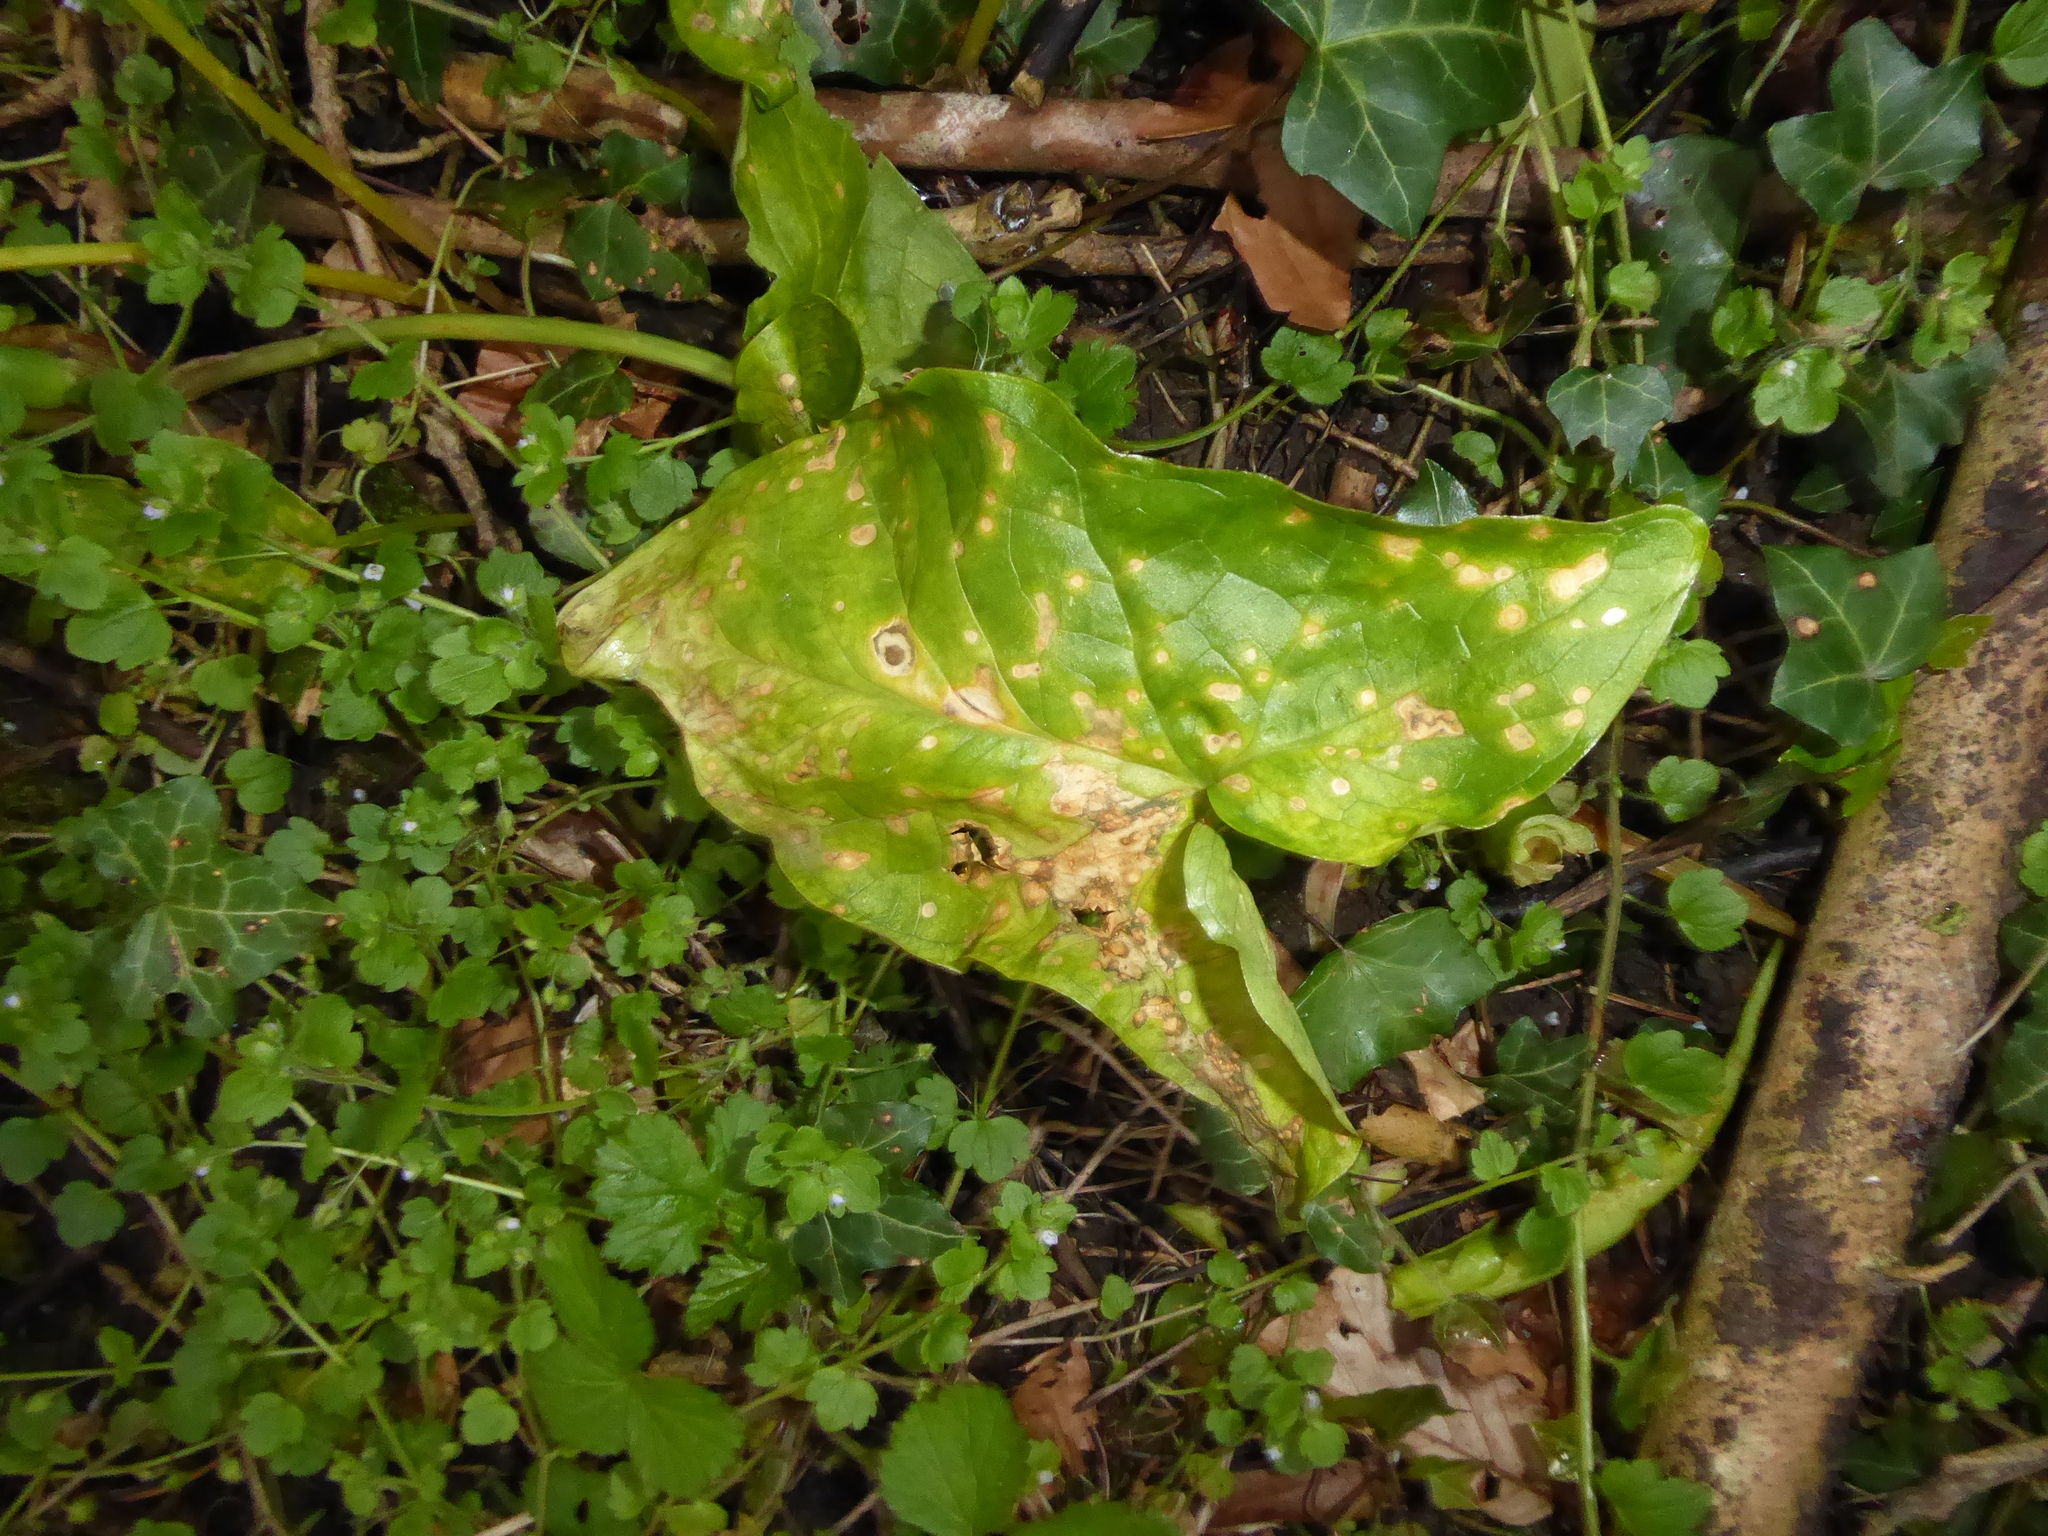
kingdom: Fungi
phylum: Ascomycota
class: Sordariomycetes
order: Glomerellales
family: Plectosphaerellaceae
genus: Spermosporina
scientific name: Spermosporina aricola
